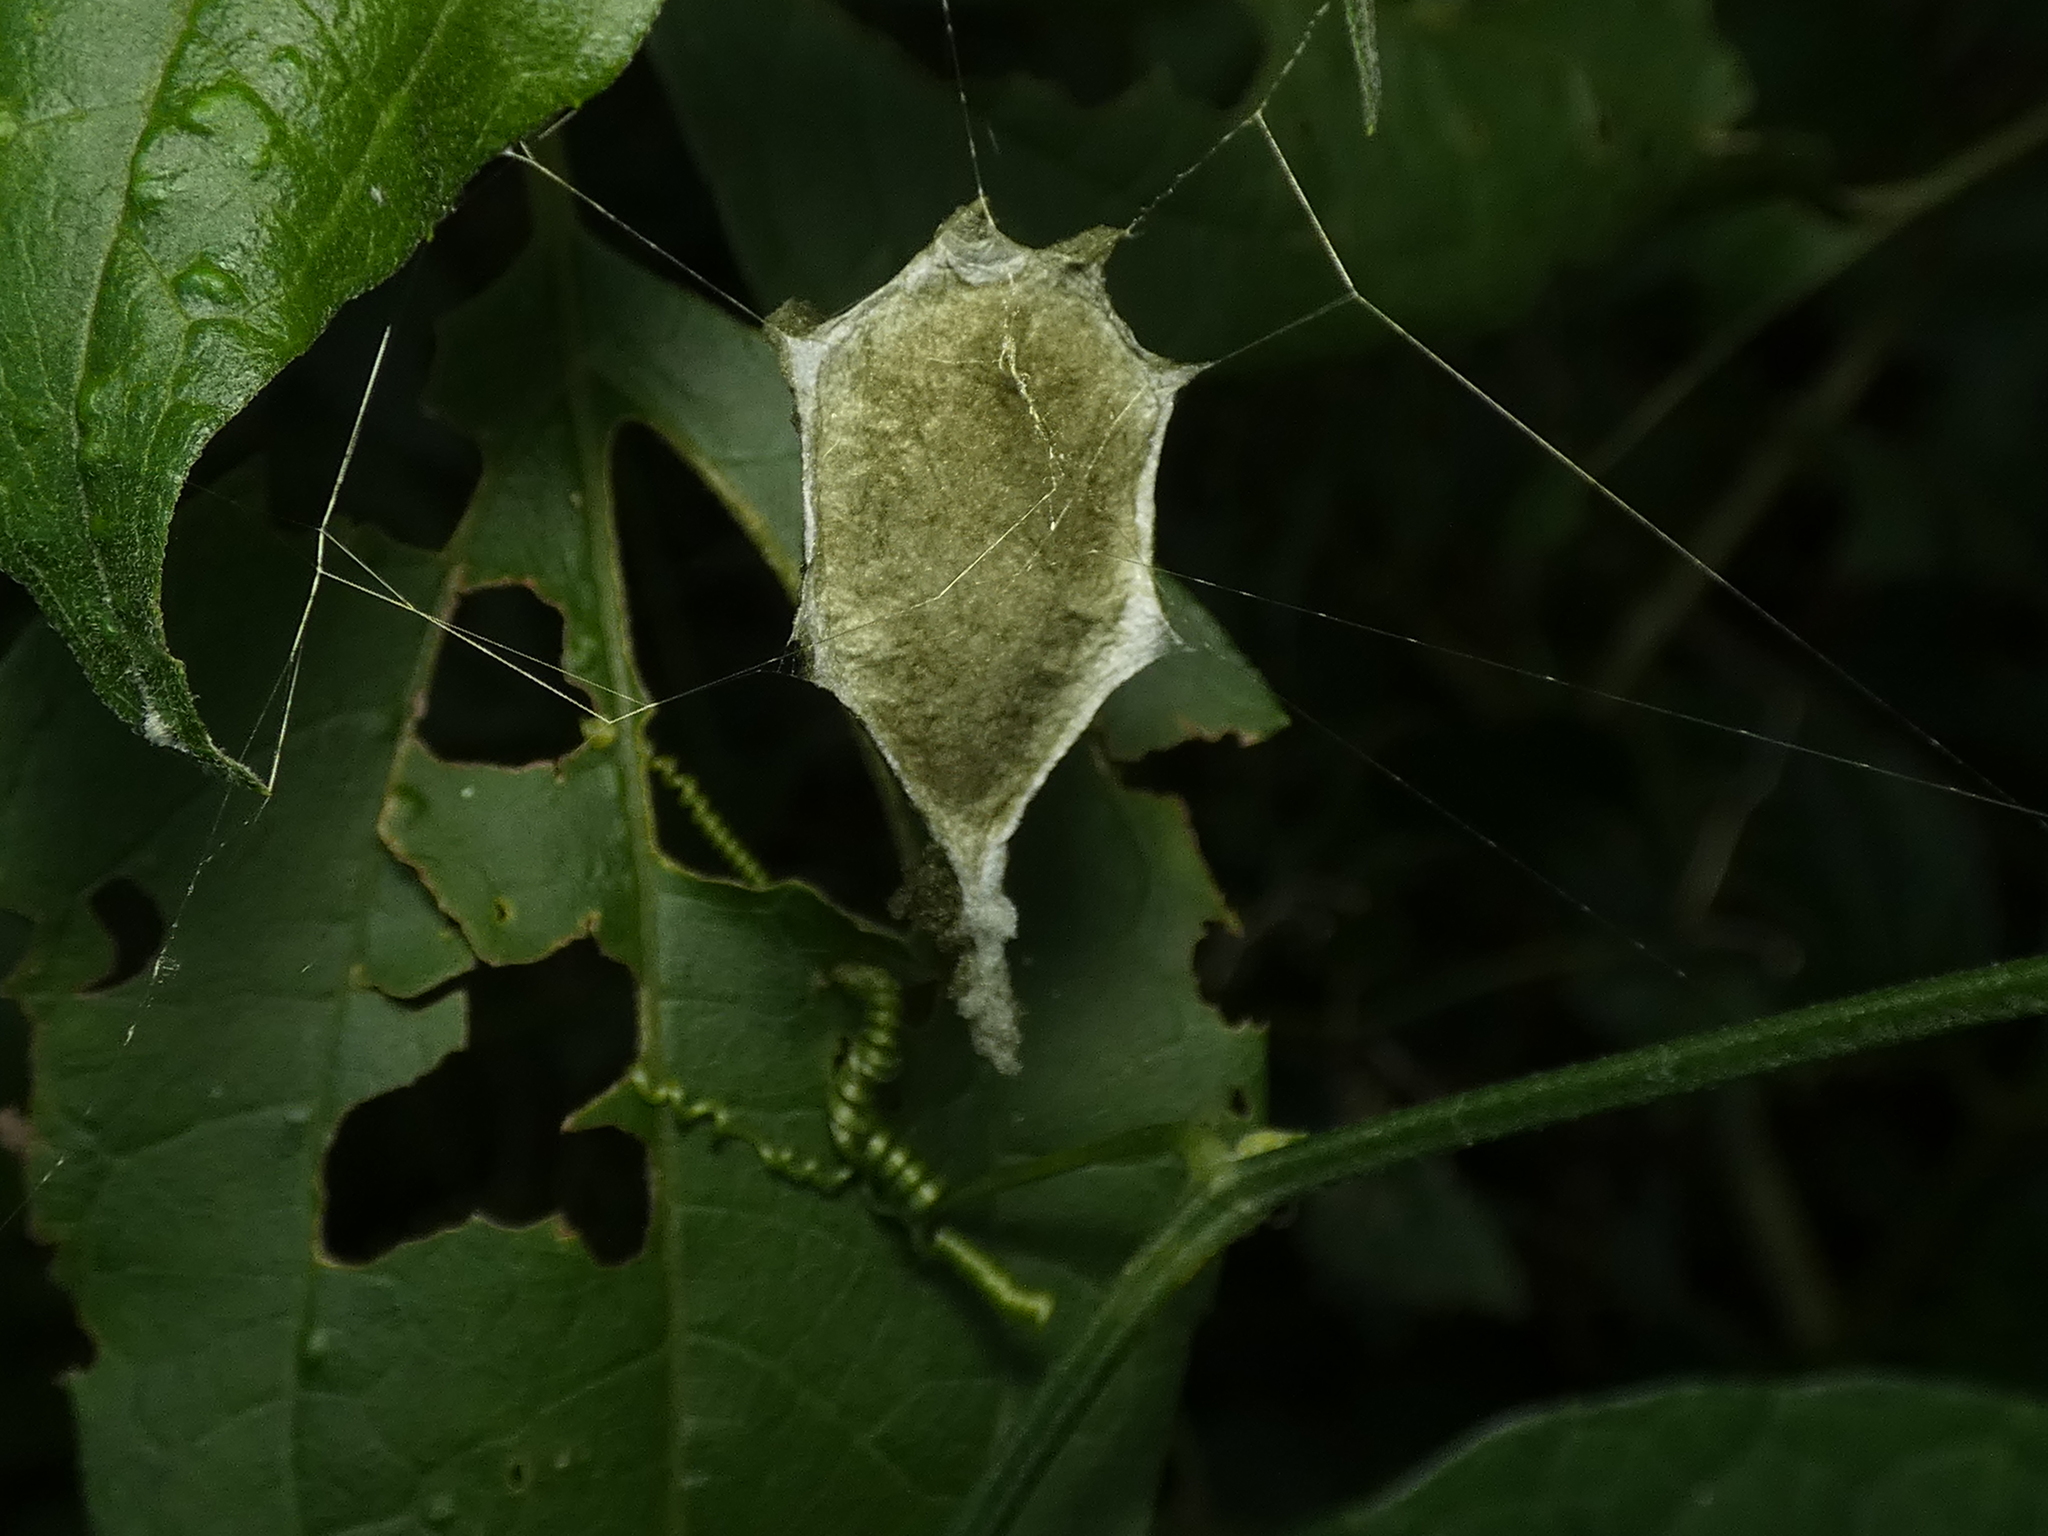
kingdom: Animalia
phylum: Arthropoda
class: Arachnida
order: Araneae
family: Araneidae
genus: Argiope
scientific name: Argiope argentata
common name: Orb weavers
